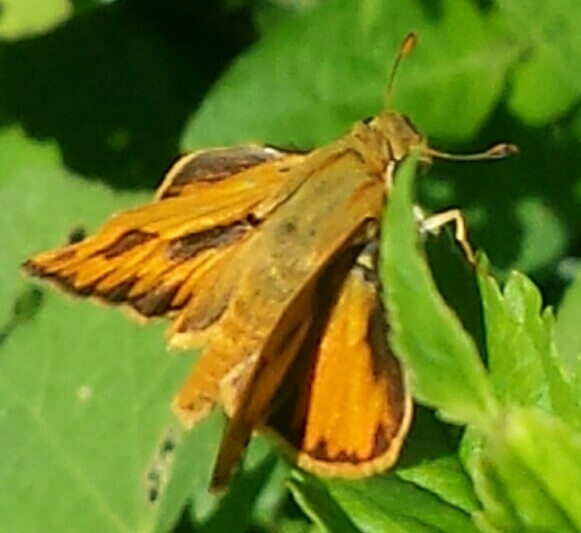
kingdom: Animalia
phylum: Arthropoda
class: Insecta
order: Lepidoptera
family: Hesperiidae
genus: Hylephila
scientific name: Hylephila phyleus
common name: Fiery skipper
